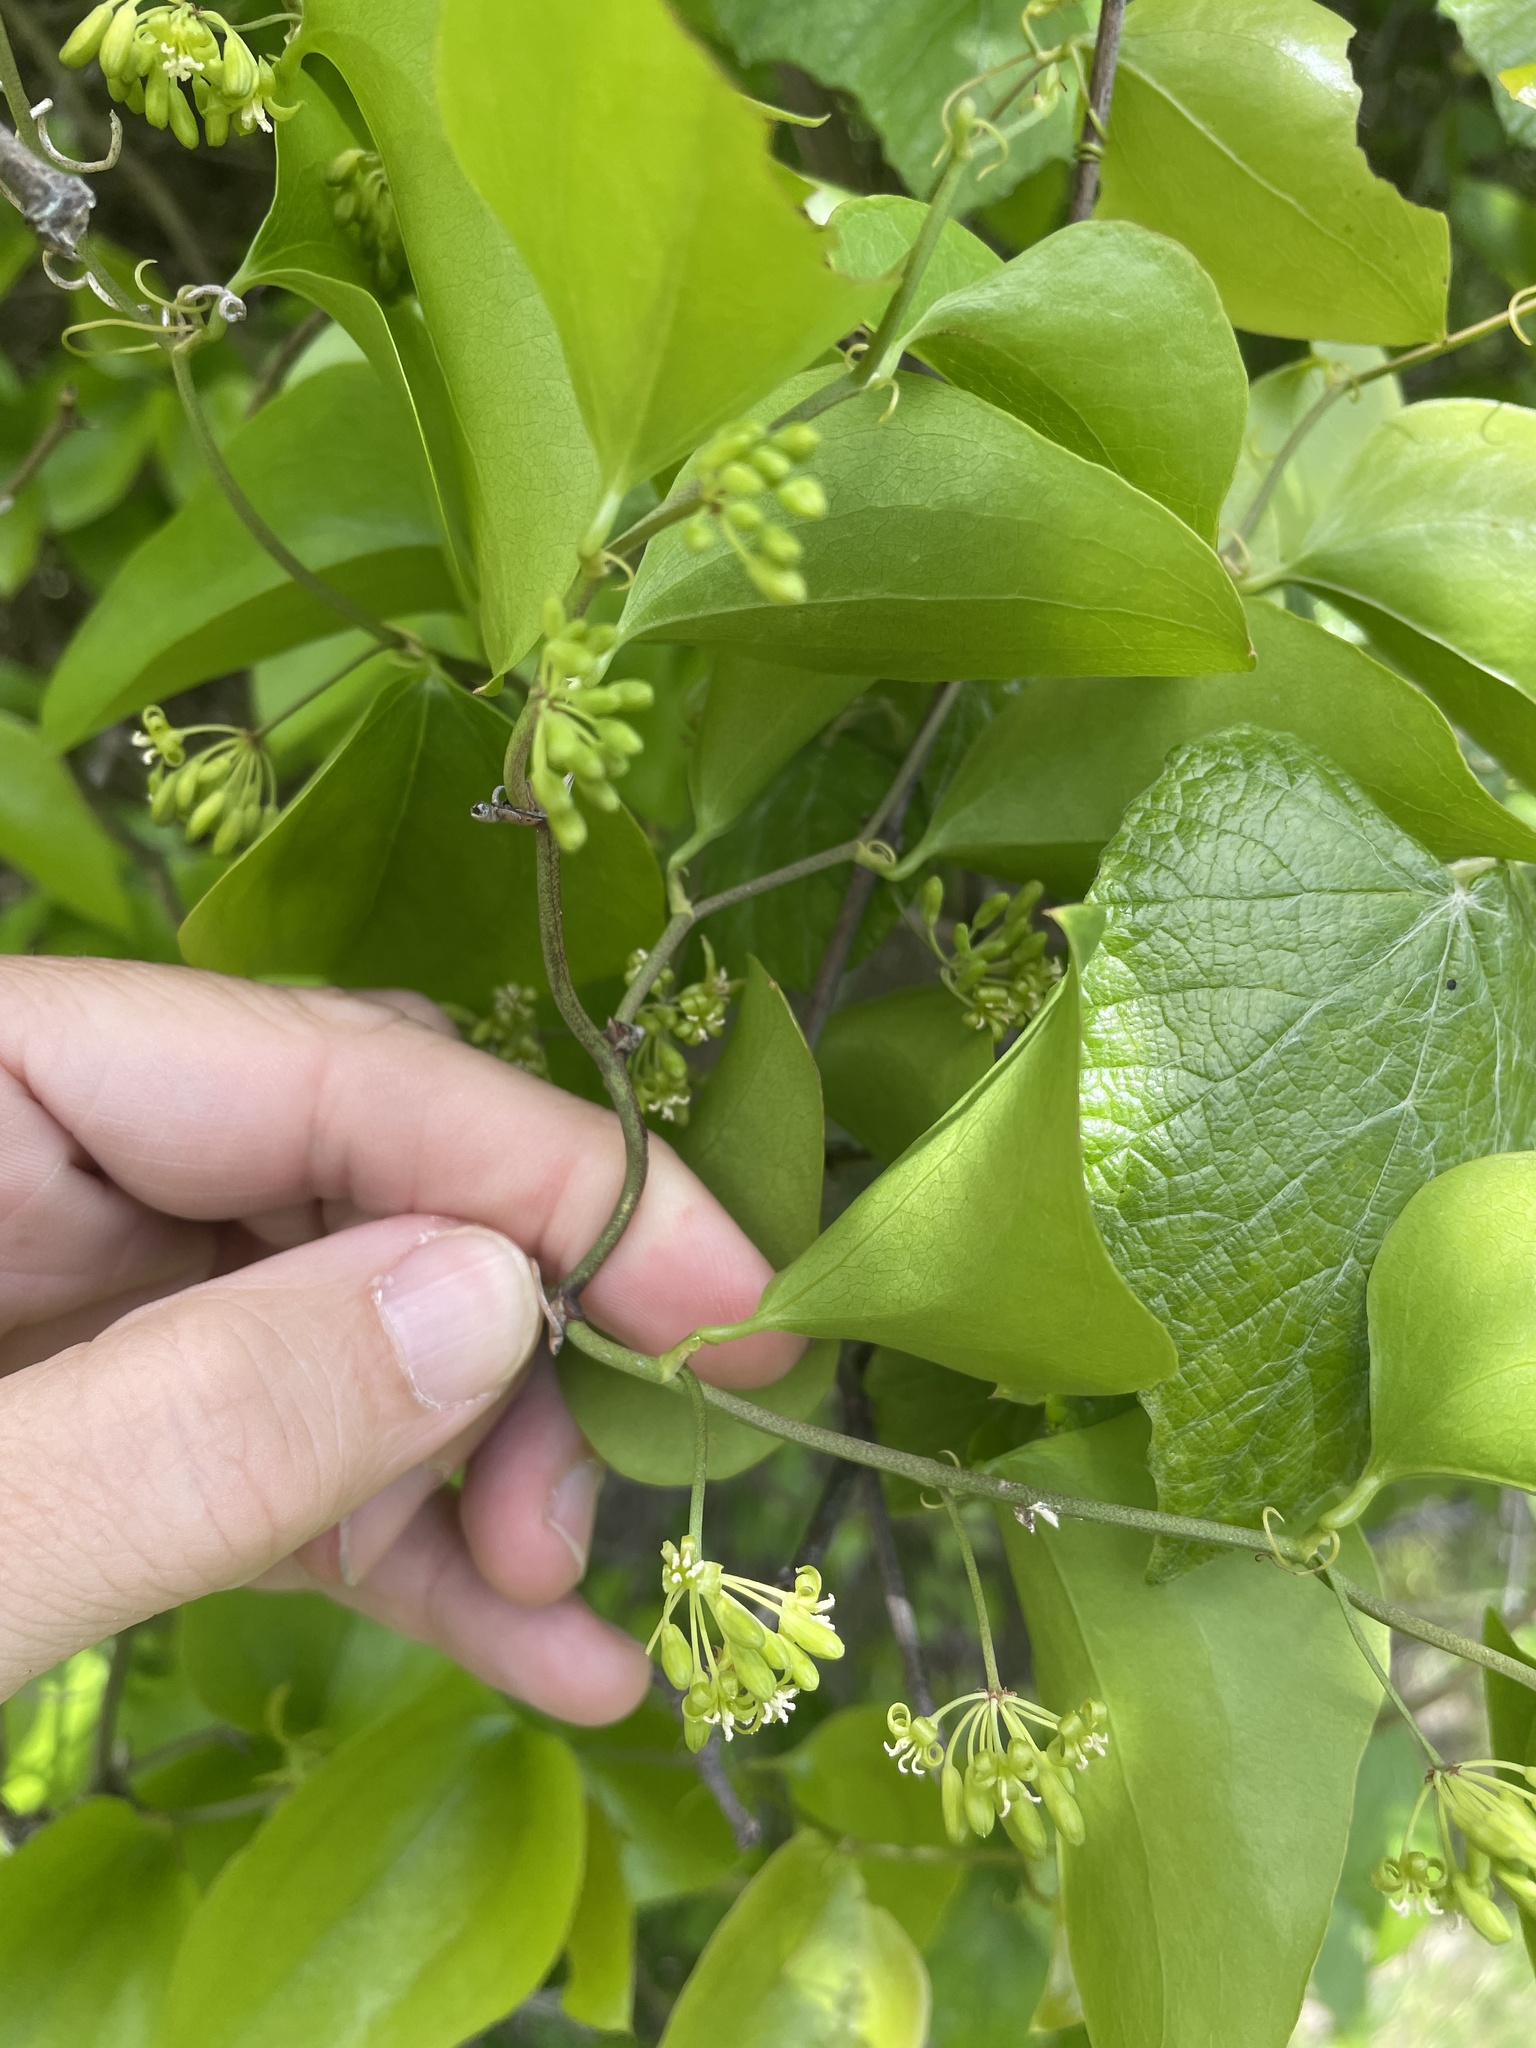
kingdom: Plantae
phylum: Tracheophyta
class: Liliopsida
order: Liliales
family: Smilacaceae
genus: Smilax
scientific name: Smilax bona-nox
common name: Catbrier
